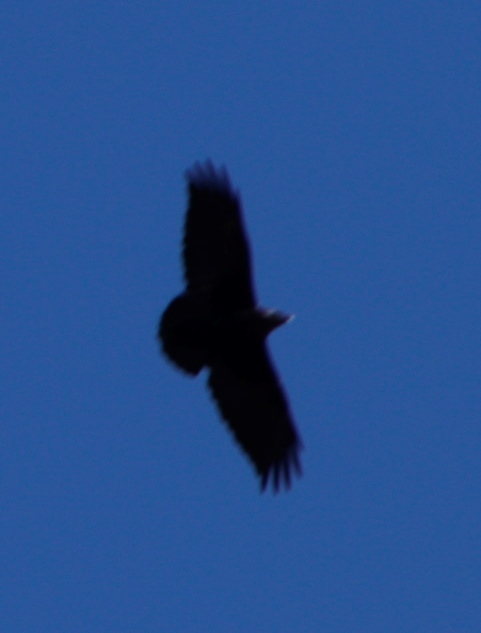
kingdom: Animalia
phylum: Chordata
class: Aves
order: Passeriformes
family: Corvidae
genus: Corvus
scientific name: Corvus albicollis
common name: White-necked raven
